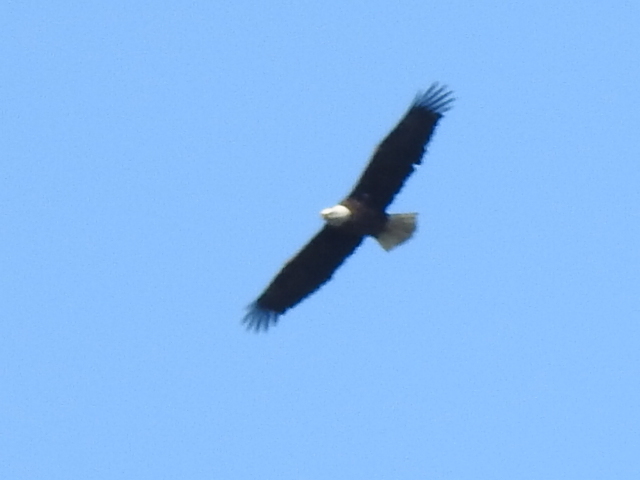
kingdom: Animalia
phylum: Chordata
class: Aves
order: Accipitriformes
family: Accipitridae
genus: Haliaeetus
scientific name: Haliaeetus leucocephalus
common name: Bald eagle
